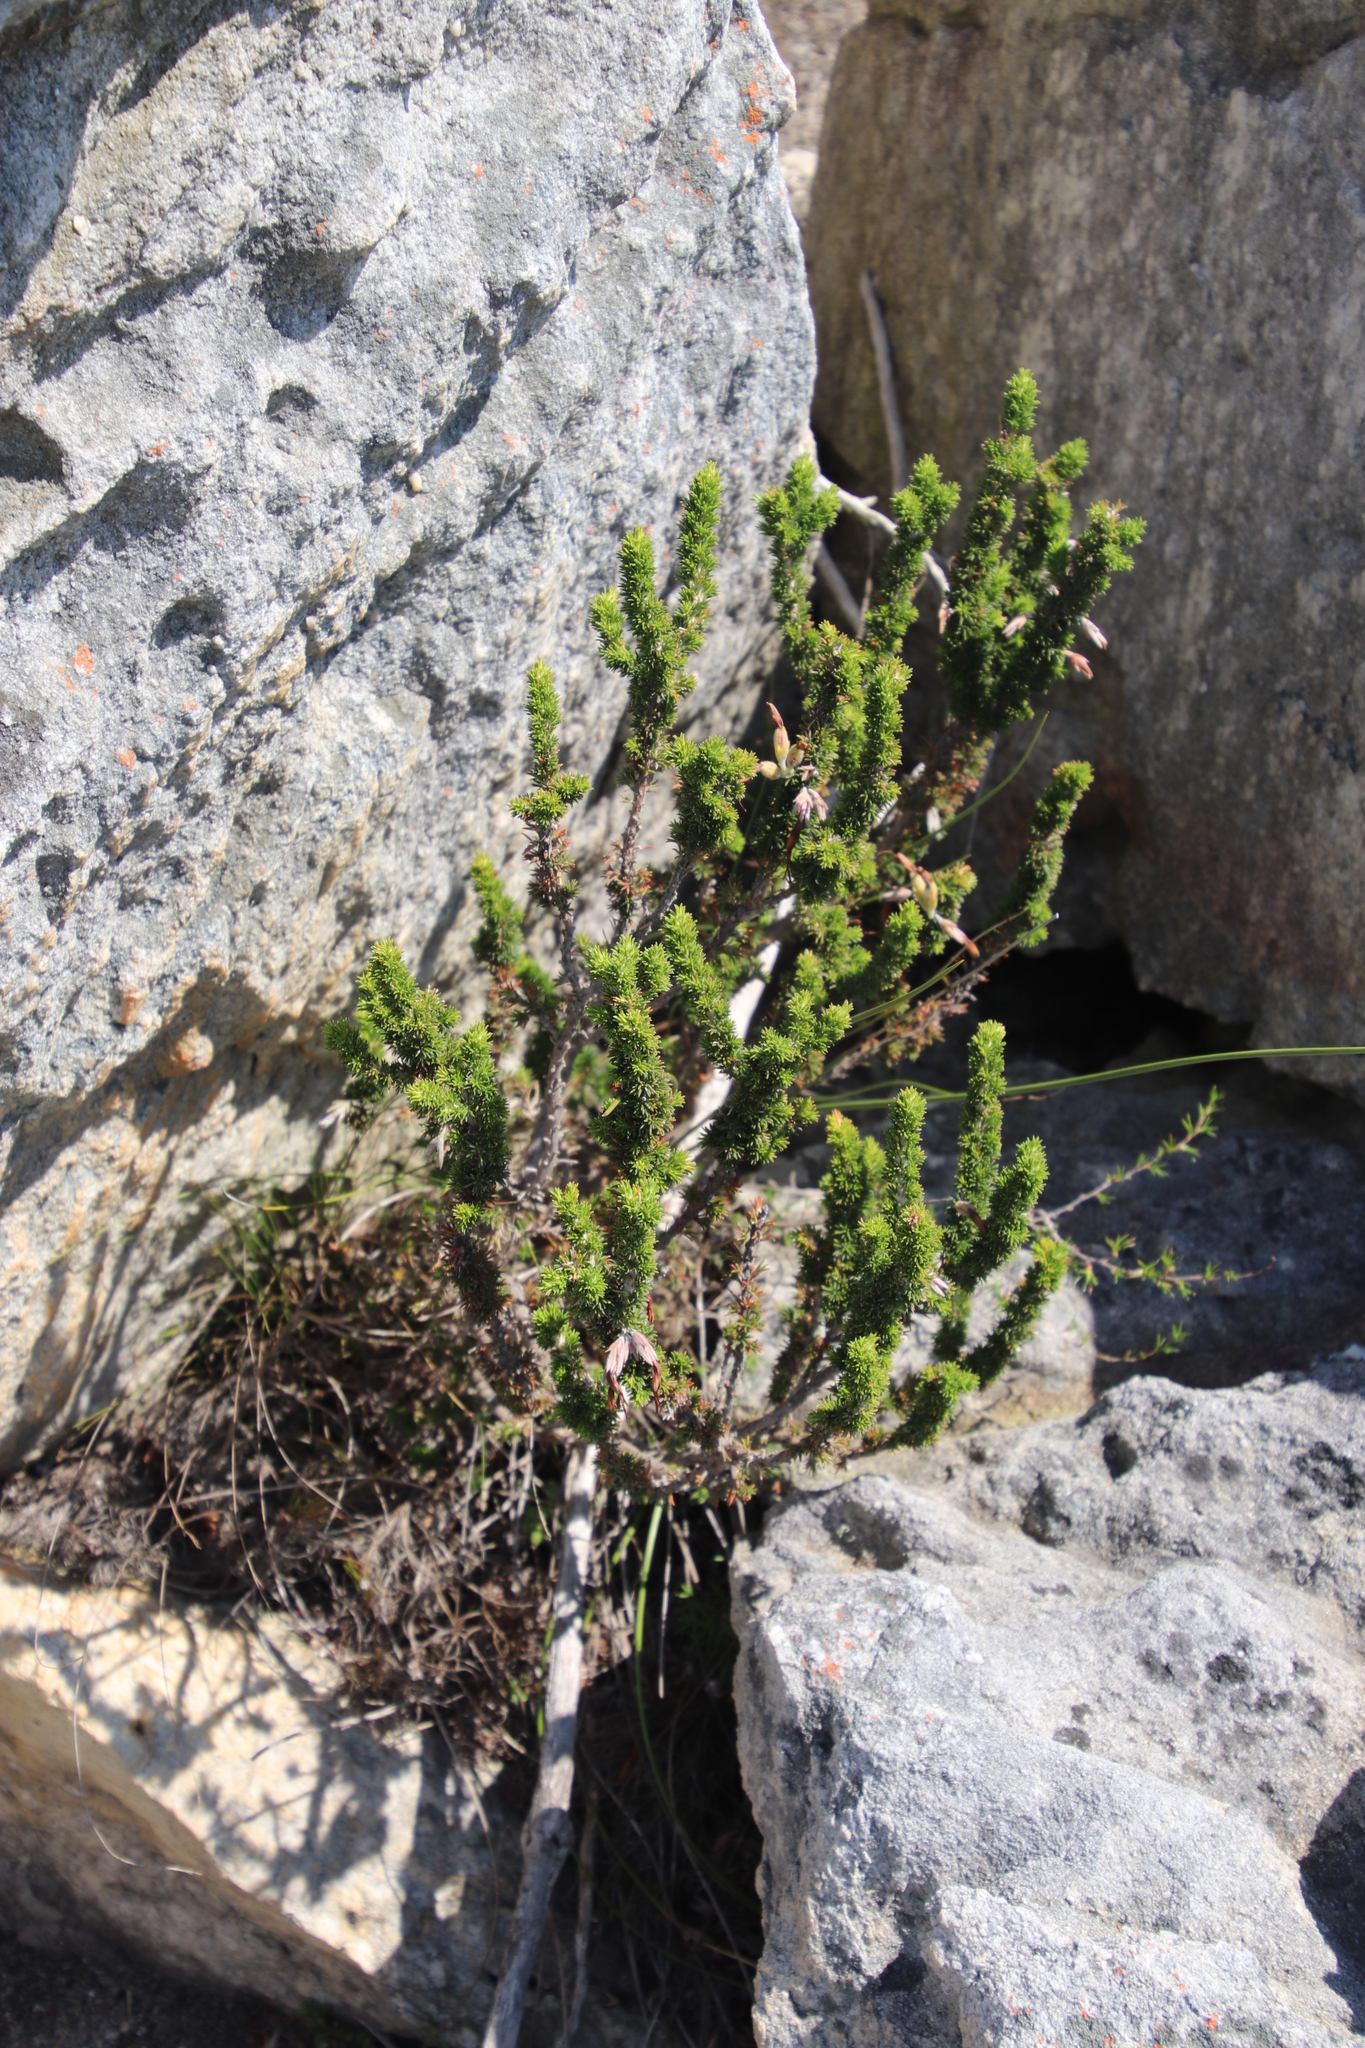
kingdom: Plantae
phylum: Tracheophyta
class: Magnoliopsida
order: Ericales
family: Ericaceae
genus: Erica
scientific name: Erica coccinea
